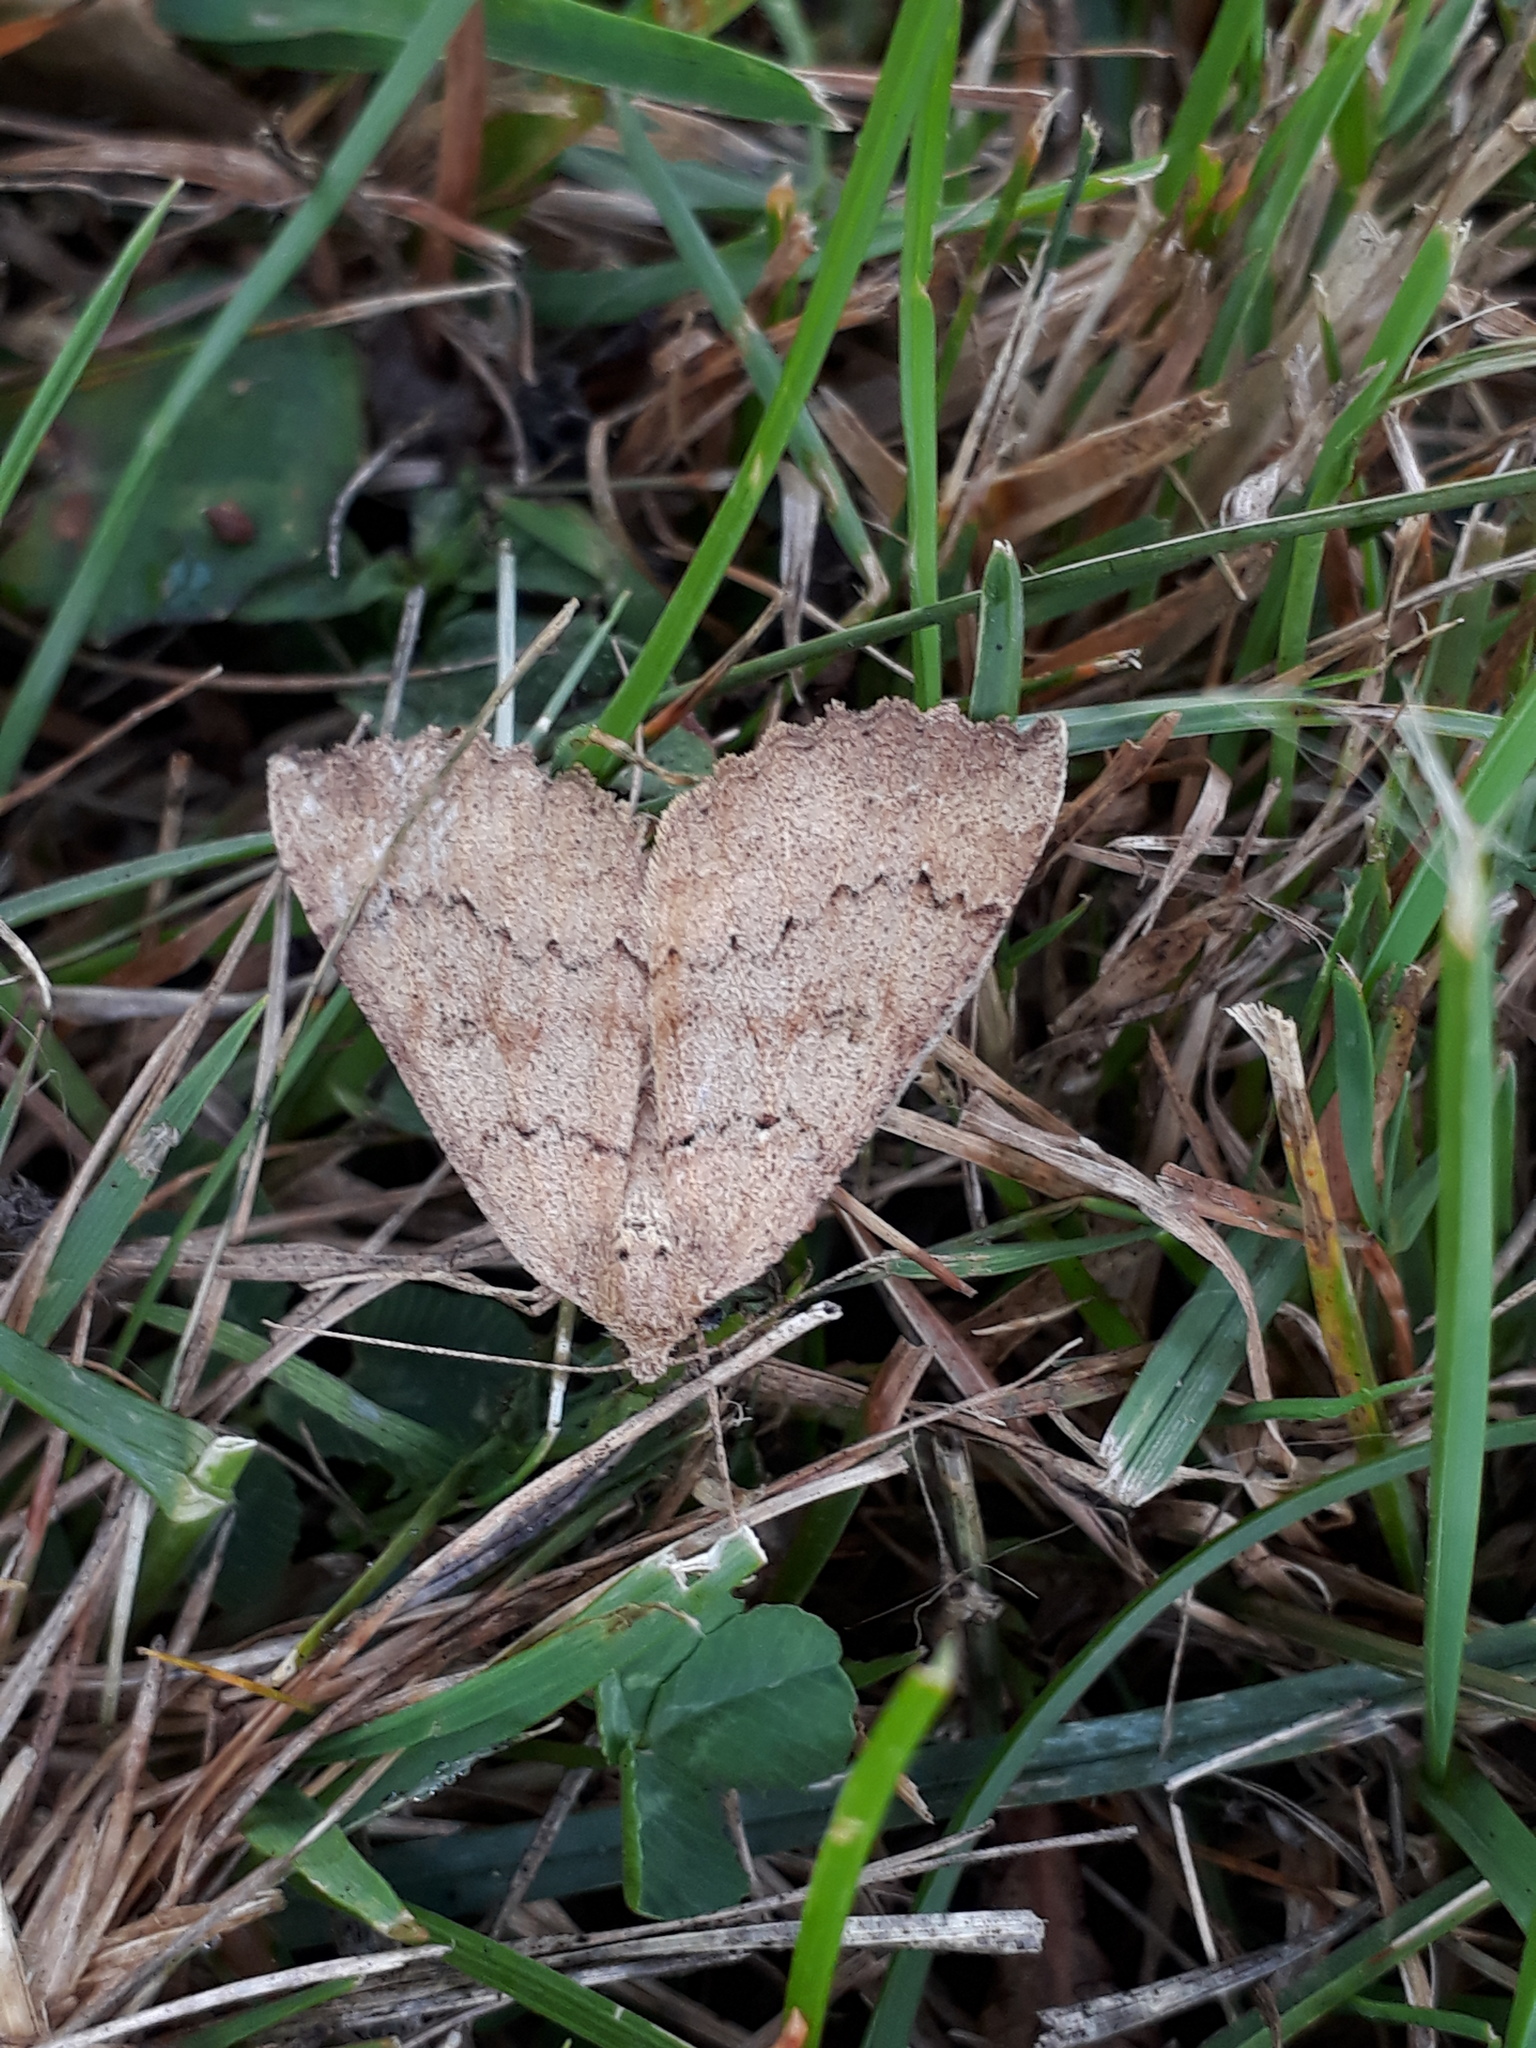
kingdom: Animalia
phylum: Arthropoda
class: Insecta
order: Lepidoptera
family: Geometridae
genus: Cleora
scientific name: Cleora scriptaria
